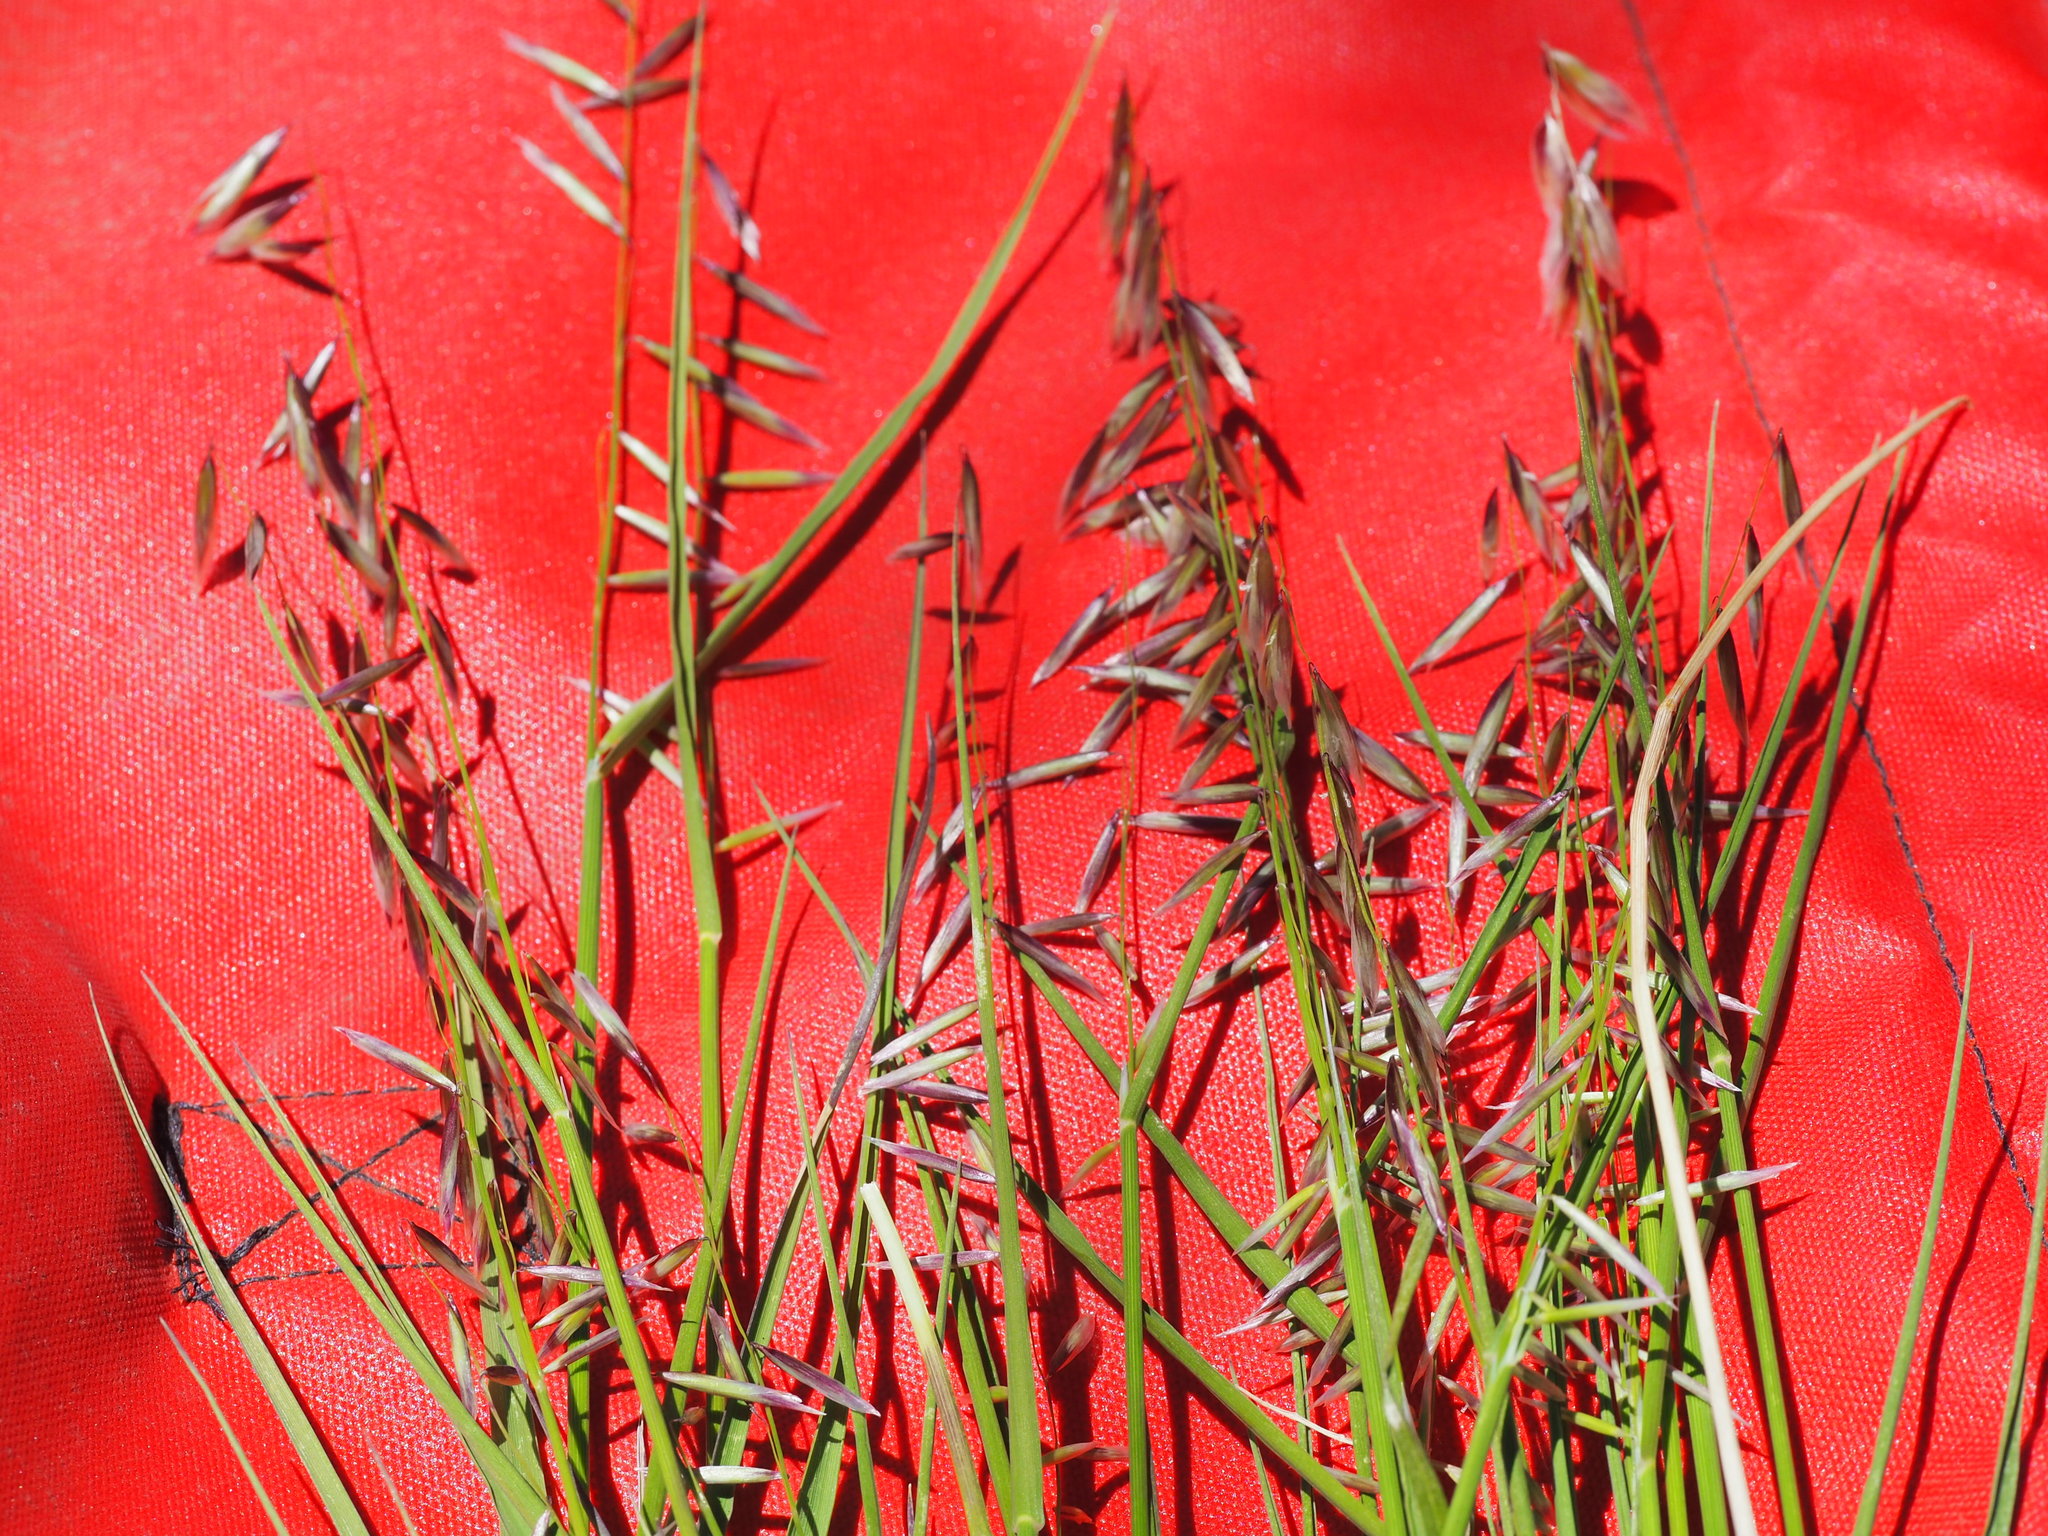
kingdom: Plantae
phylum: Tracheophyta
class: Liliopsida
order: Poales
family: Poaceae
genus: Melica
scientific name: Melica stricta
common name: Rock melic
